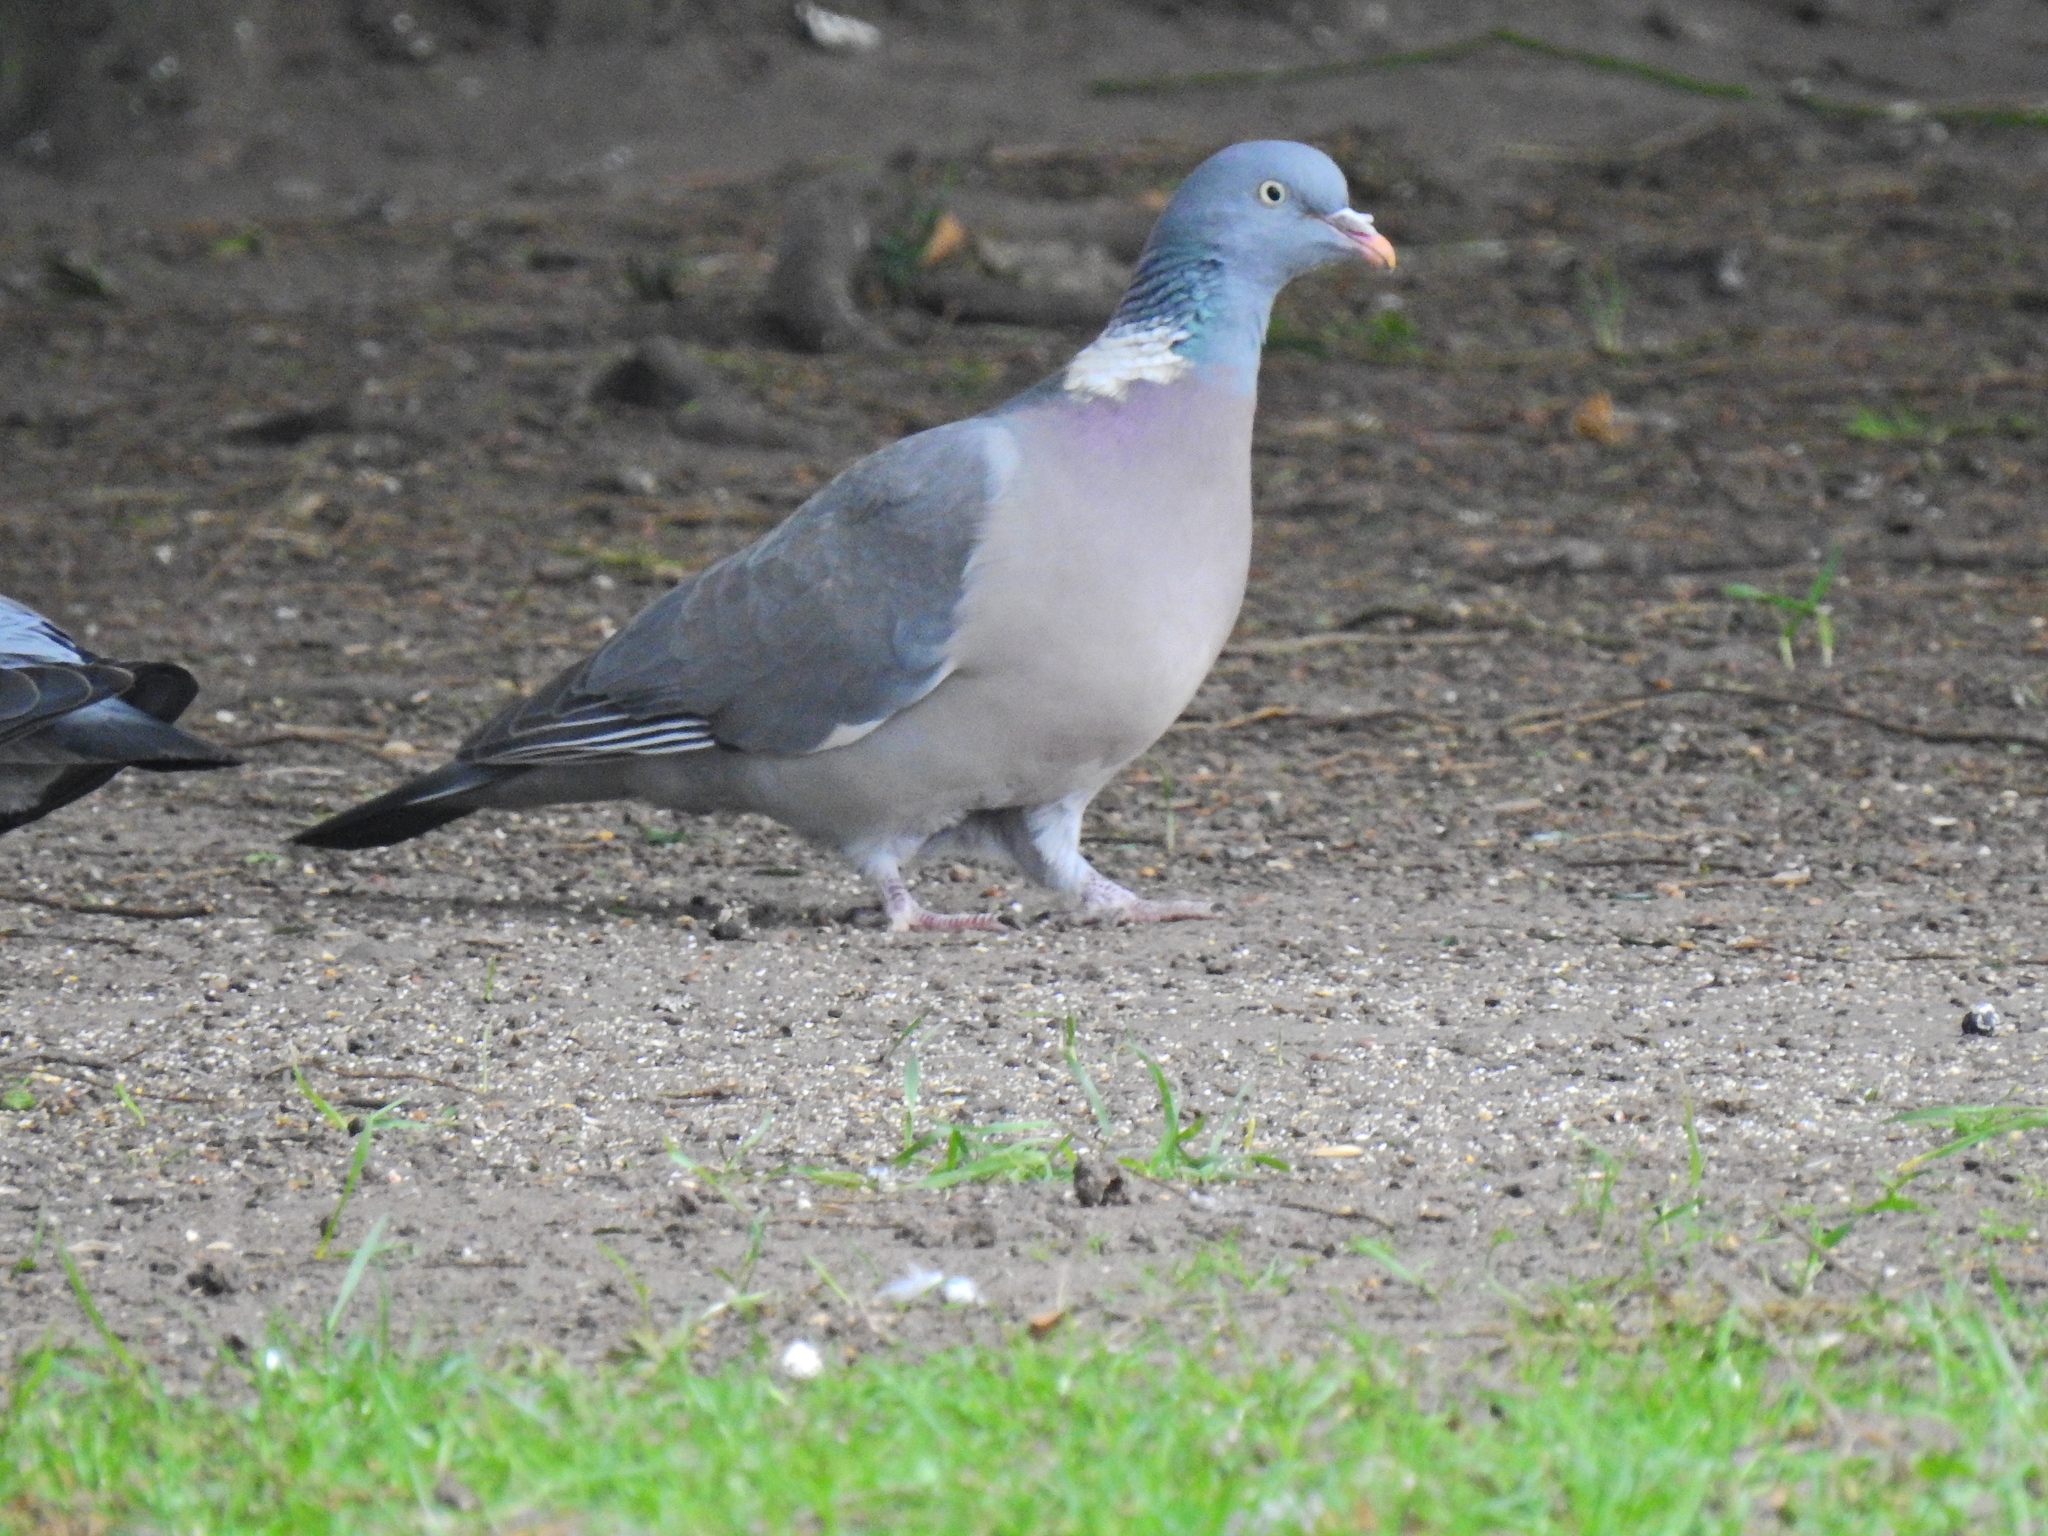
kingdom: Animalia
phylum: Chordata
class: Aves
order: Columbiformes
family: Columbidae
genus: Columba
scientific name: Columba palumbus
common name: Common wood pigeon
